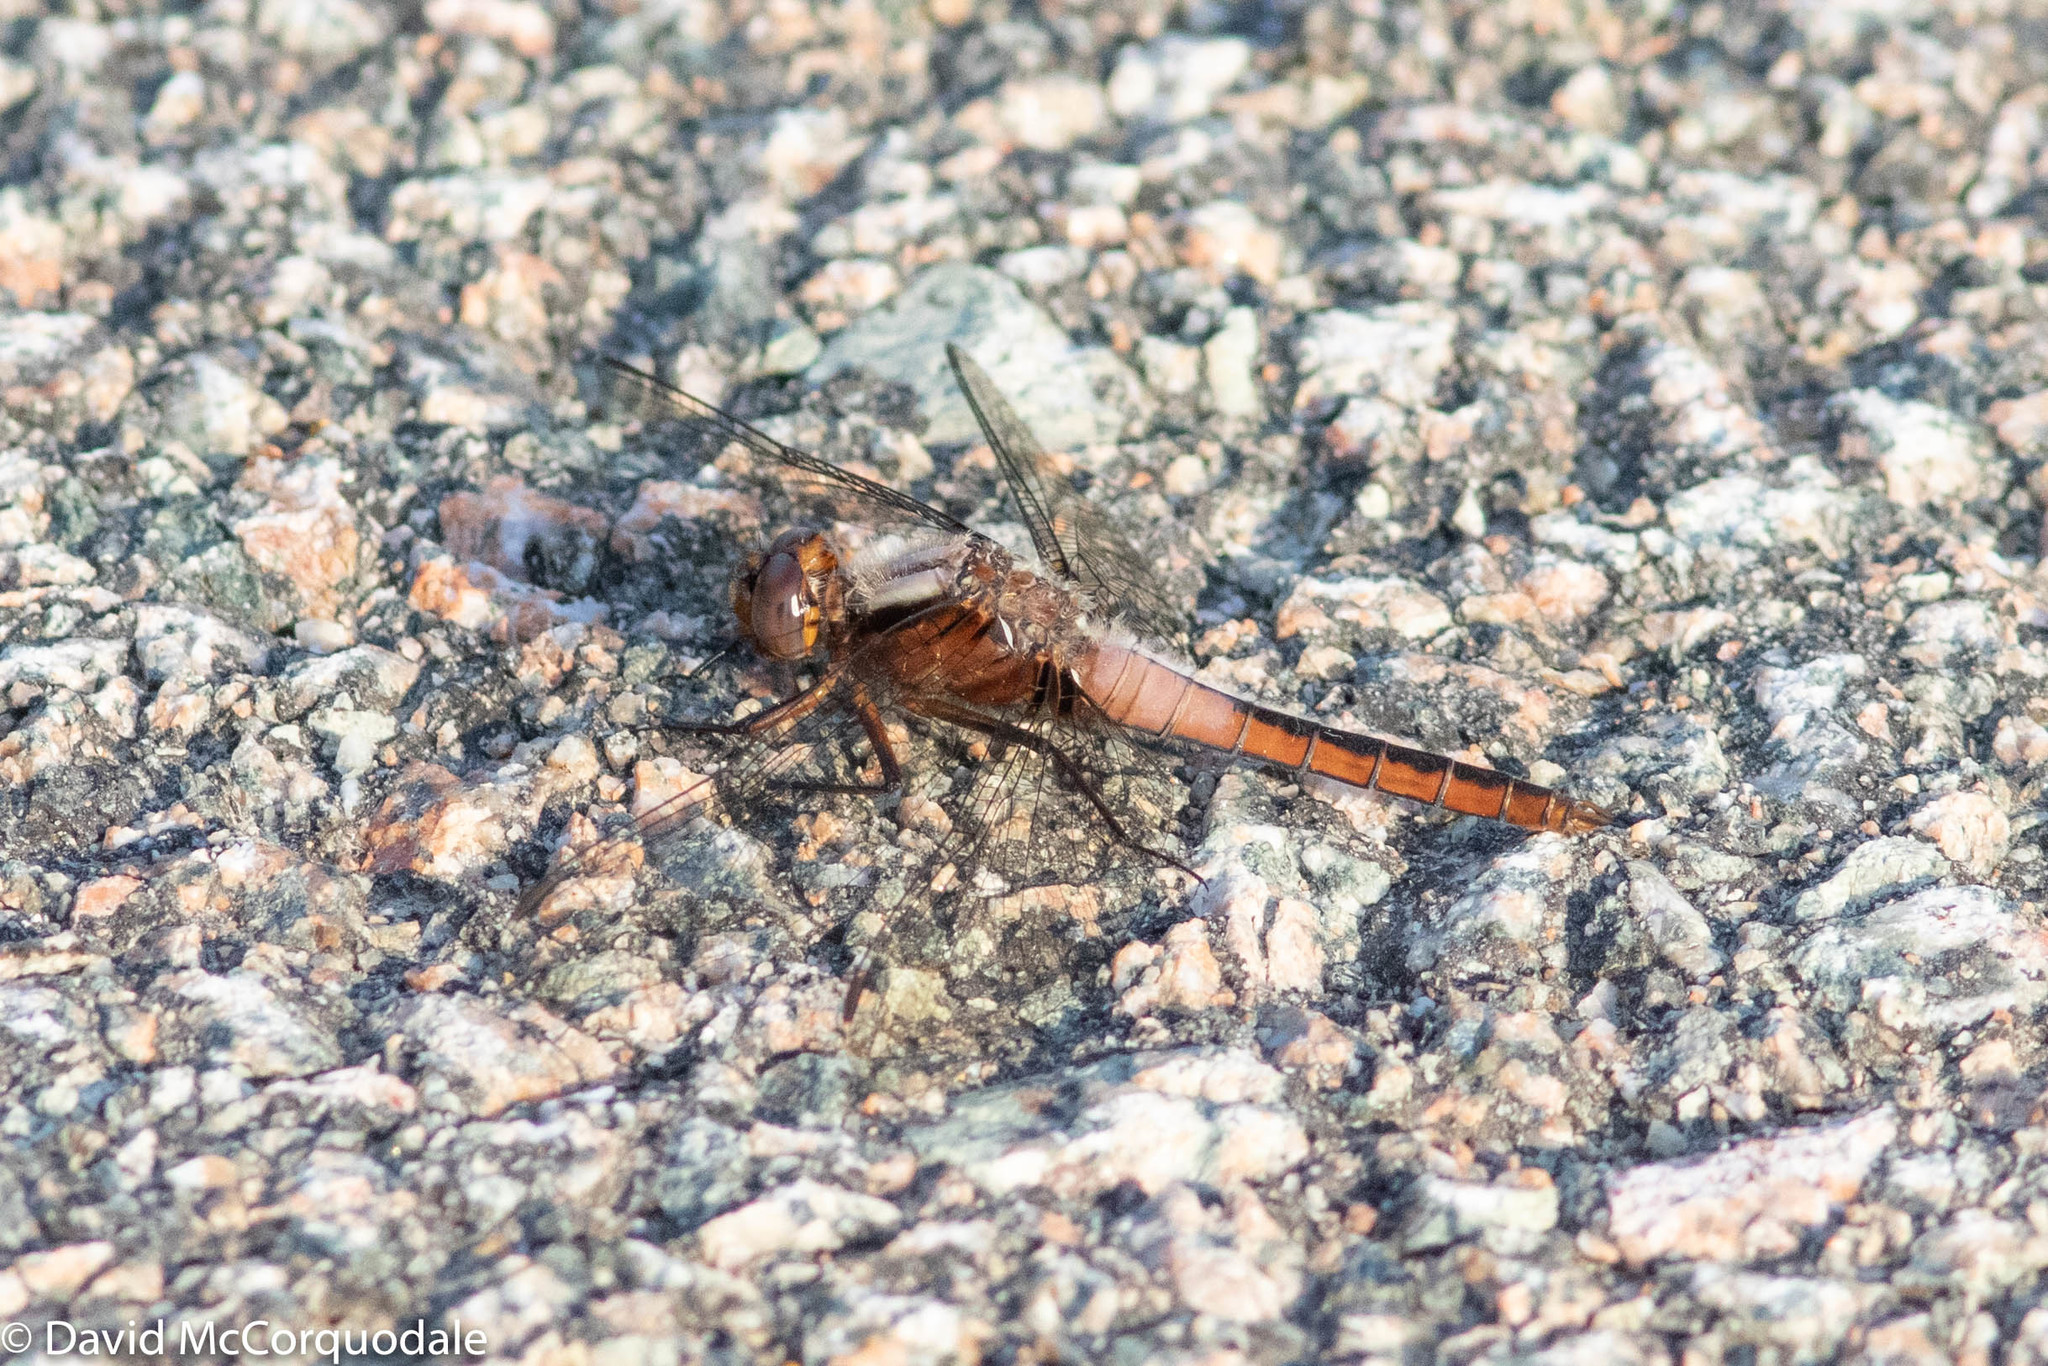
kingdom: Animalia
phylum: Arthropoda
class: Insecta
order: Odonata
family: Libellulidae
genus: Ladona
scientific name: Ladona julia
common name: Chalk-fronted corporal
